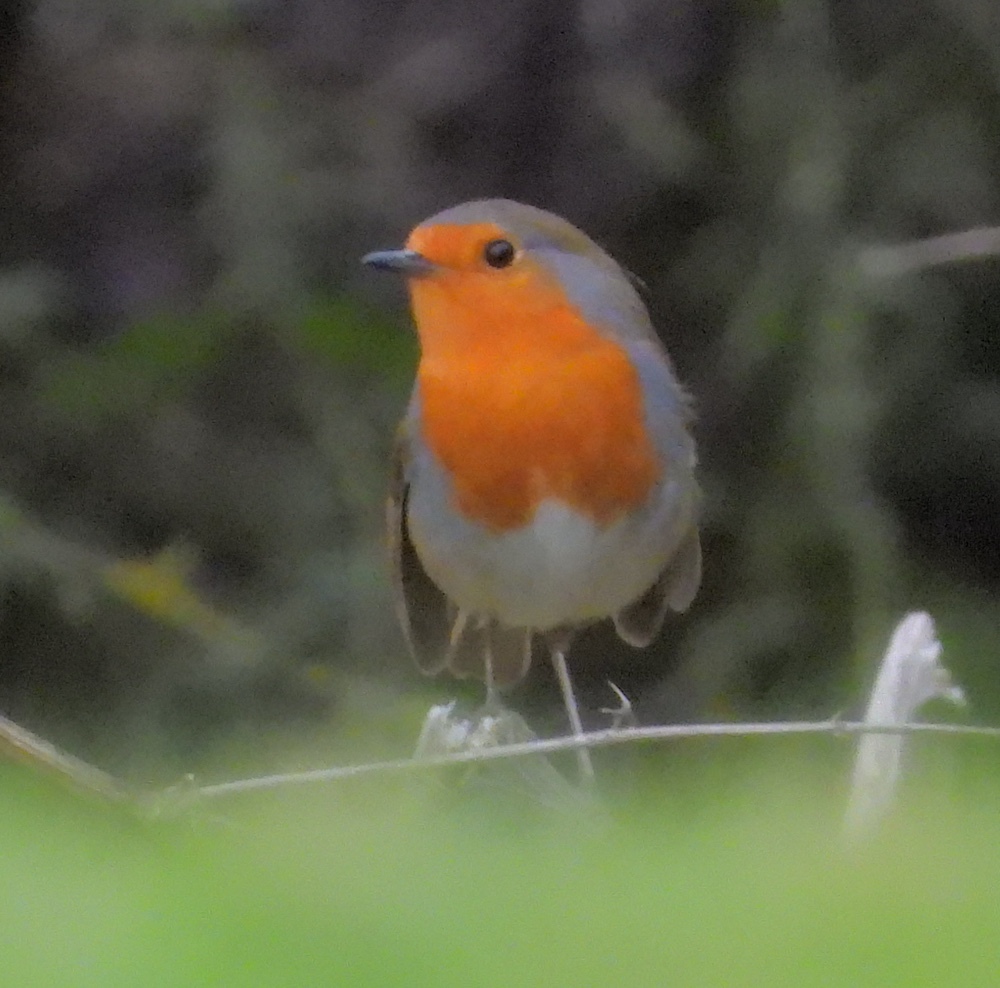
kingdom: Animalia
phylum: Chordata
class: Aves
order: Passeriformes
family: Muscicapidae
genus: Erithacus
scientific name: Erithacus rubecula
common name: European robin
